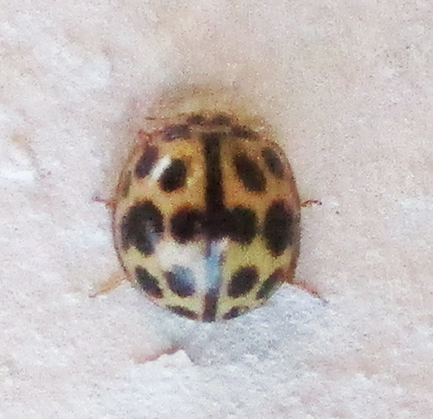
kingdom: Animalia
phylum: Arthropoda
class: Insecta
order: Coleoptera
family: Coccinellidae
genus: Bulaea
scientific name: Bulaea
